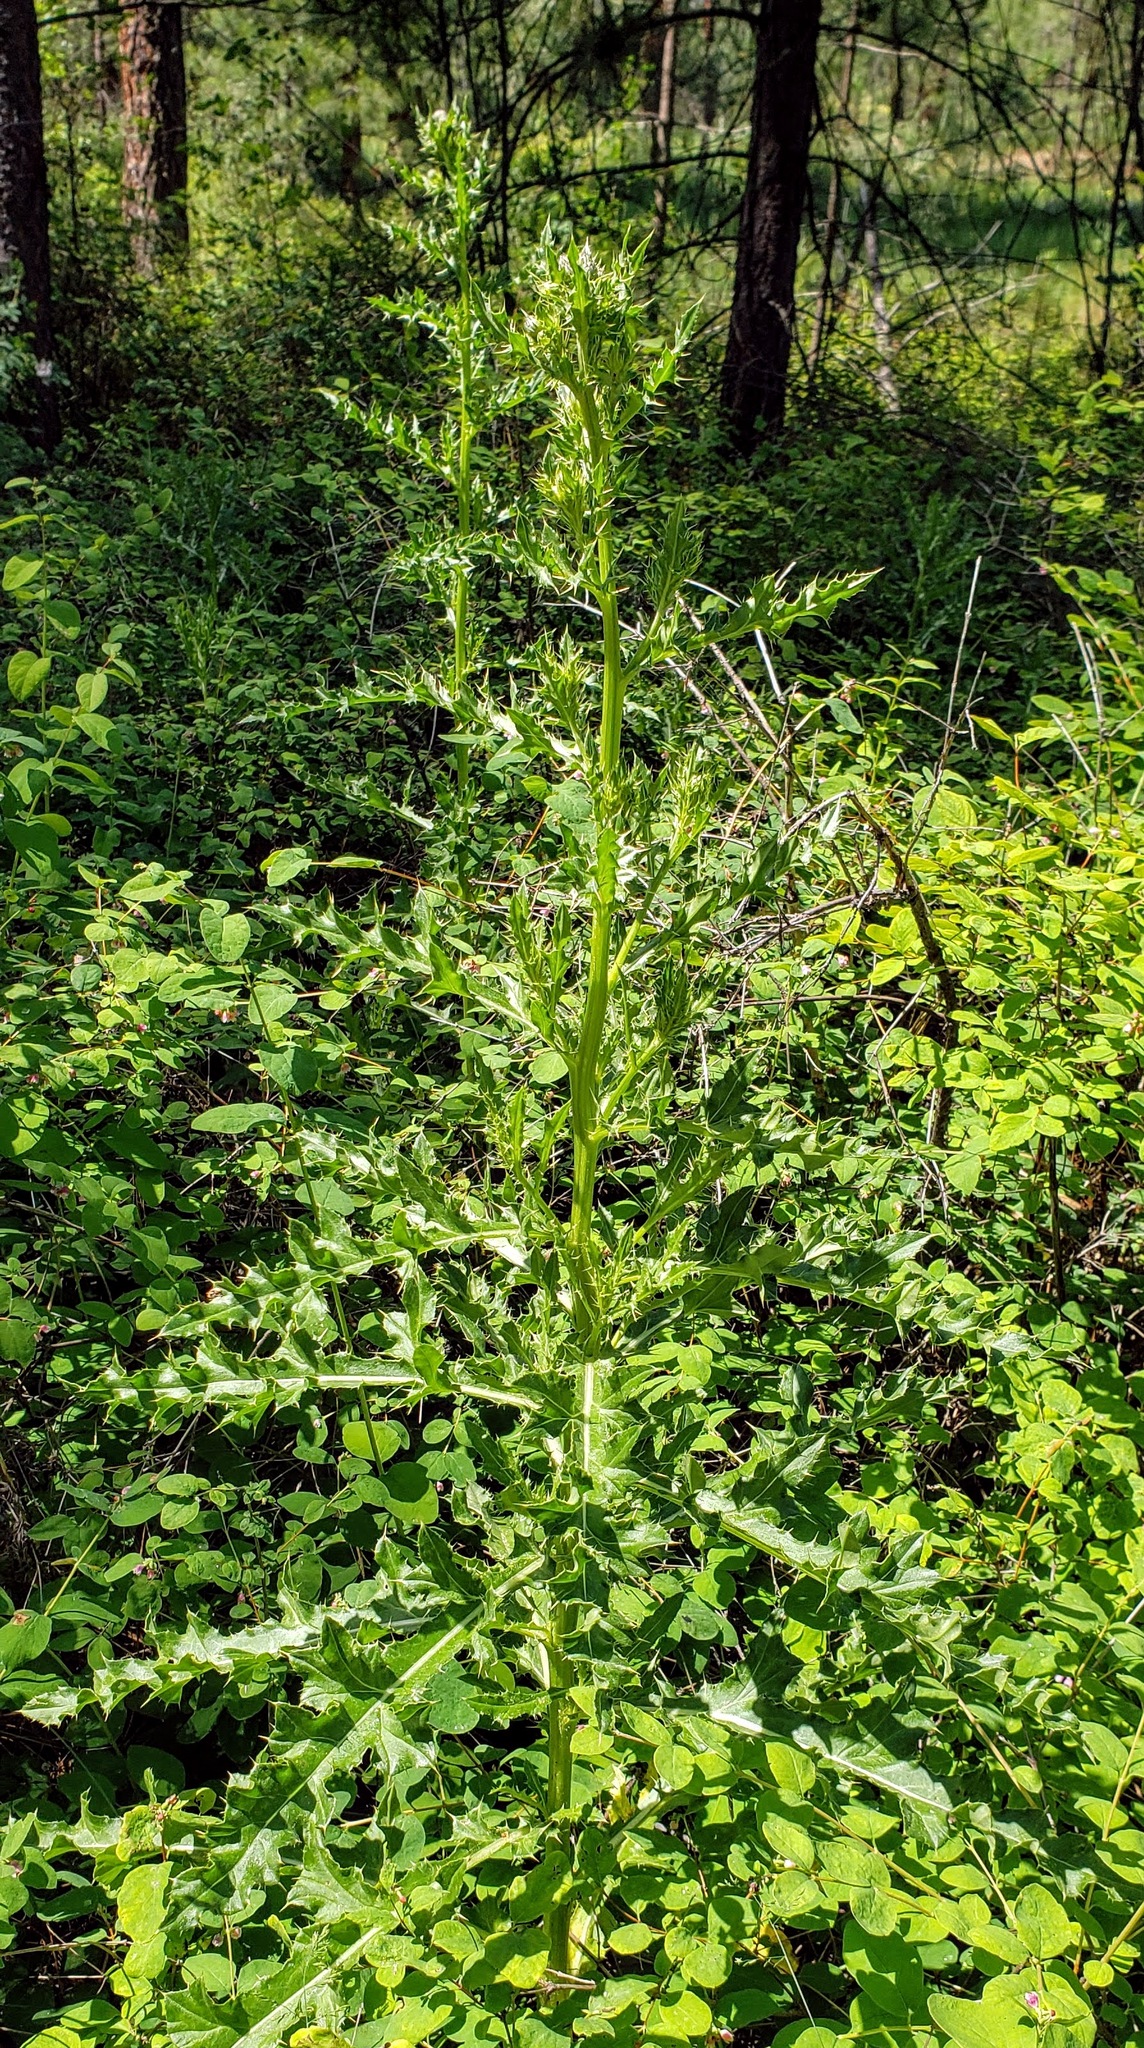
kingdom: Plantae
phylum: Tracheophyta
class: Magnoliopsida
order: Asterales
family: Asteraceae
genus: Cirsium
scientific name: Cirsium arvense
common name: Creeping thistle
